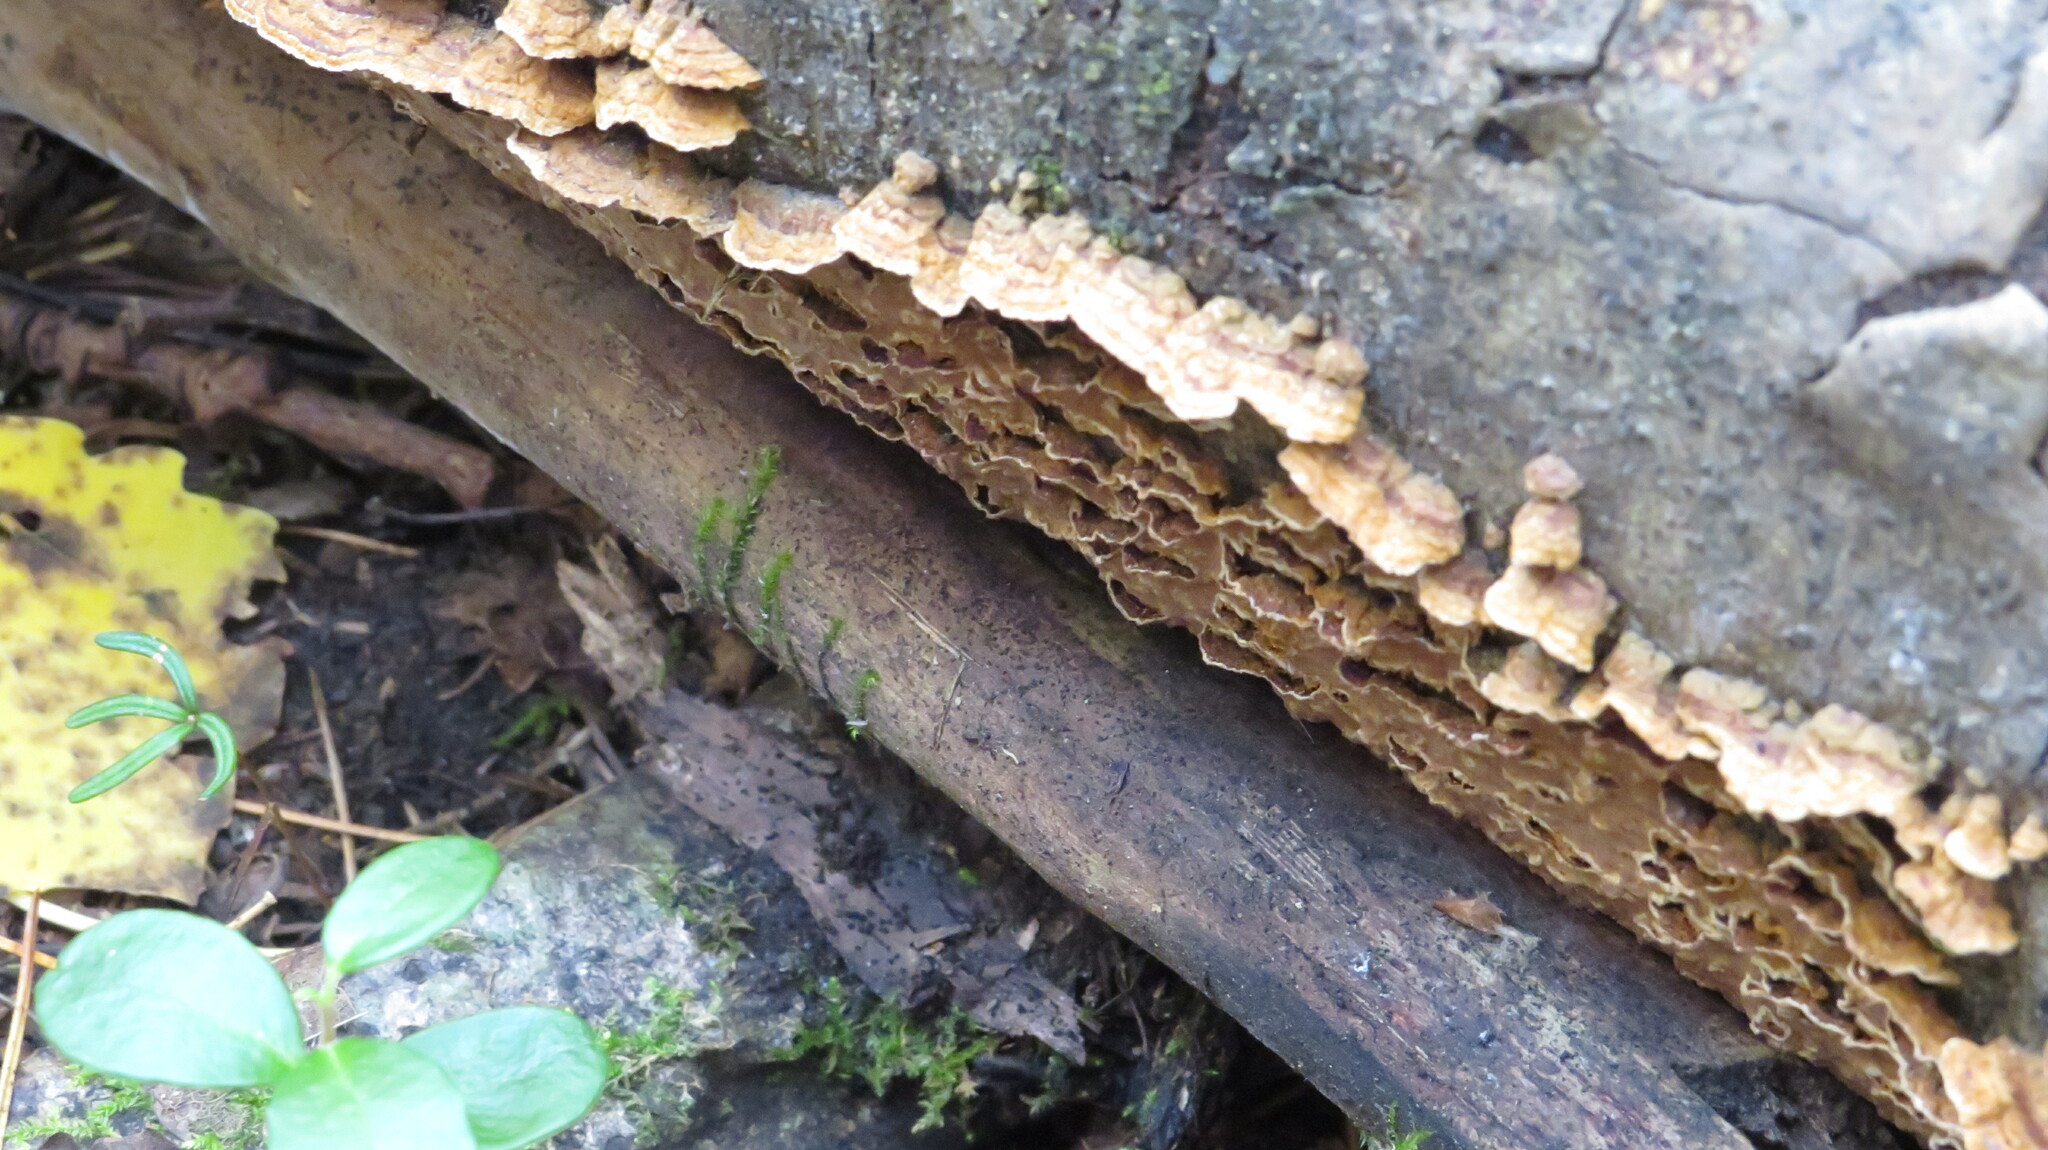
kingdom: Fungi
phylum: Basidiomycota
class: Agaricomycetes
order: Hymenochaetales
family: Hymenochaetaceae
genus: Hydnoporia
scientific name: Hydnoporia tabacina
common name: Willow glue
